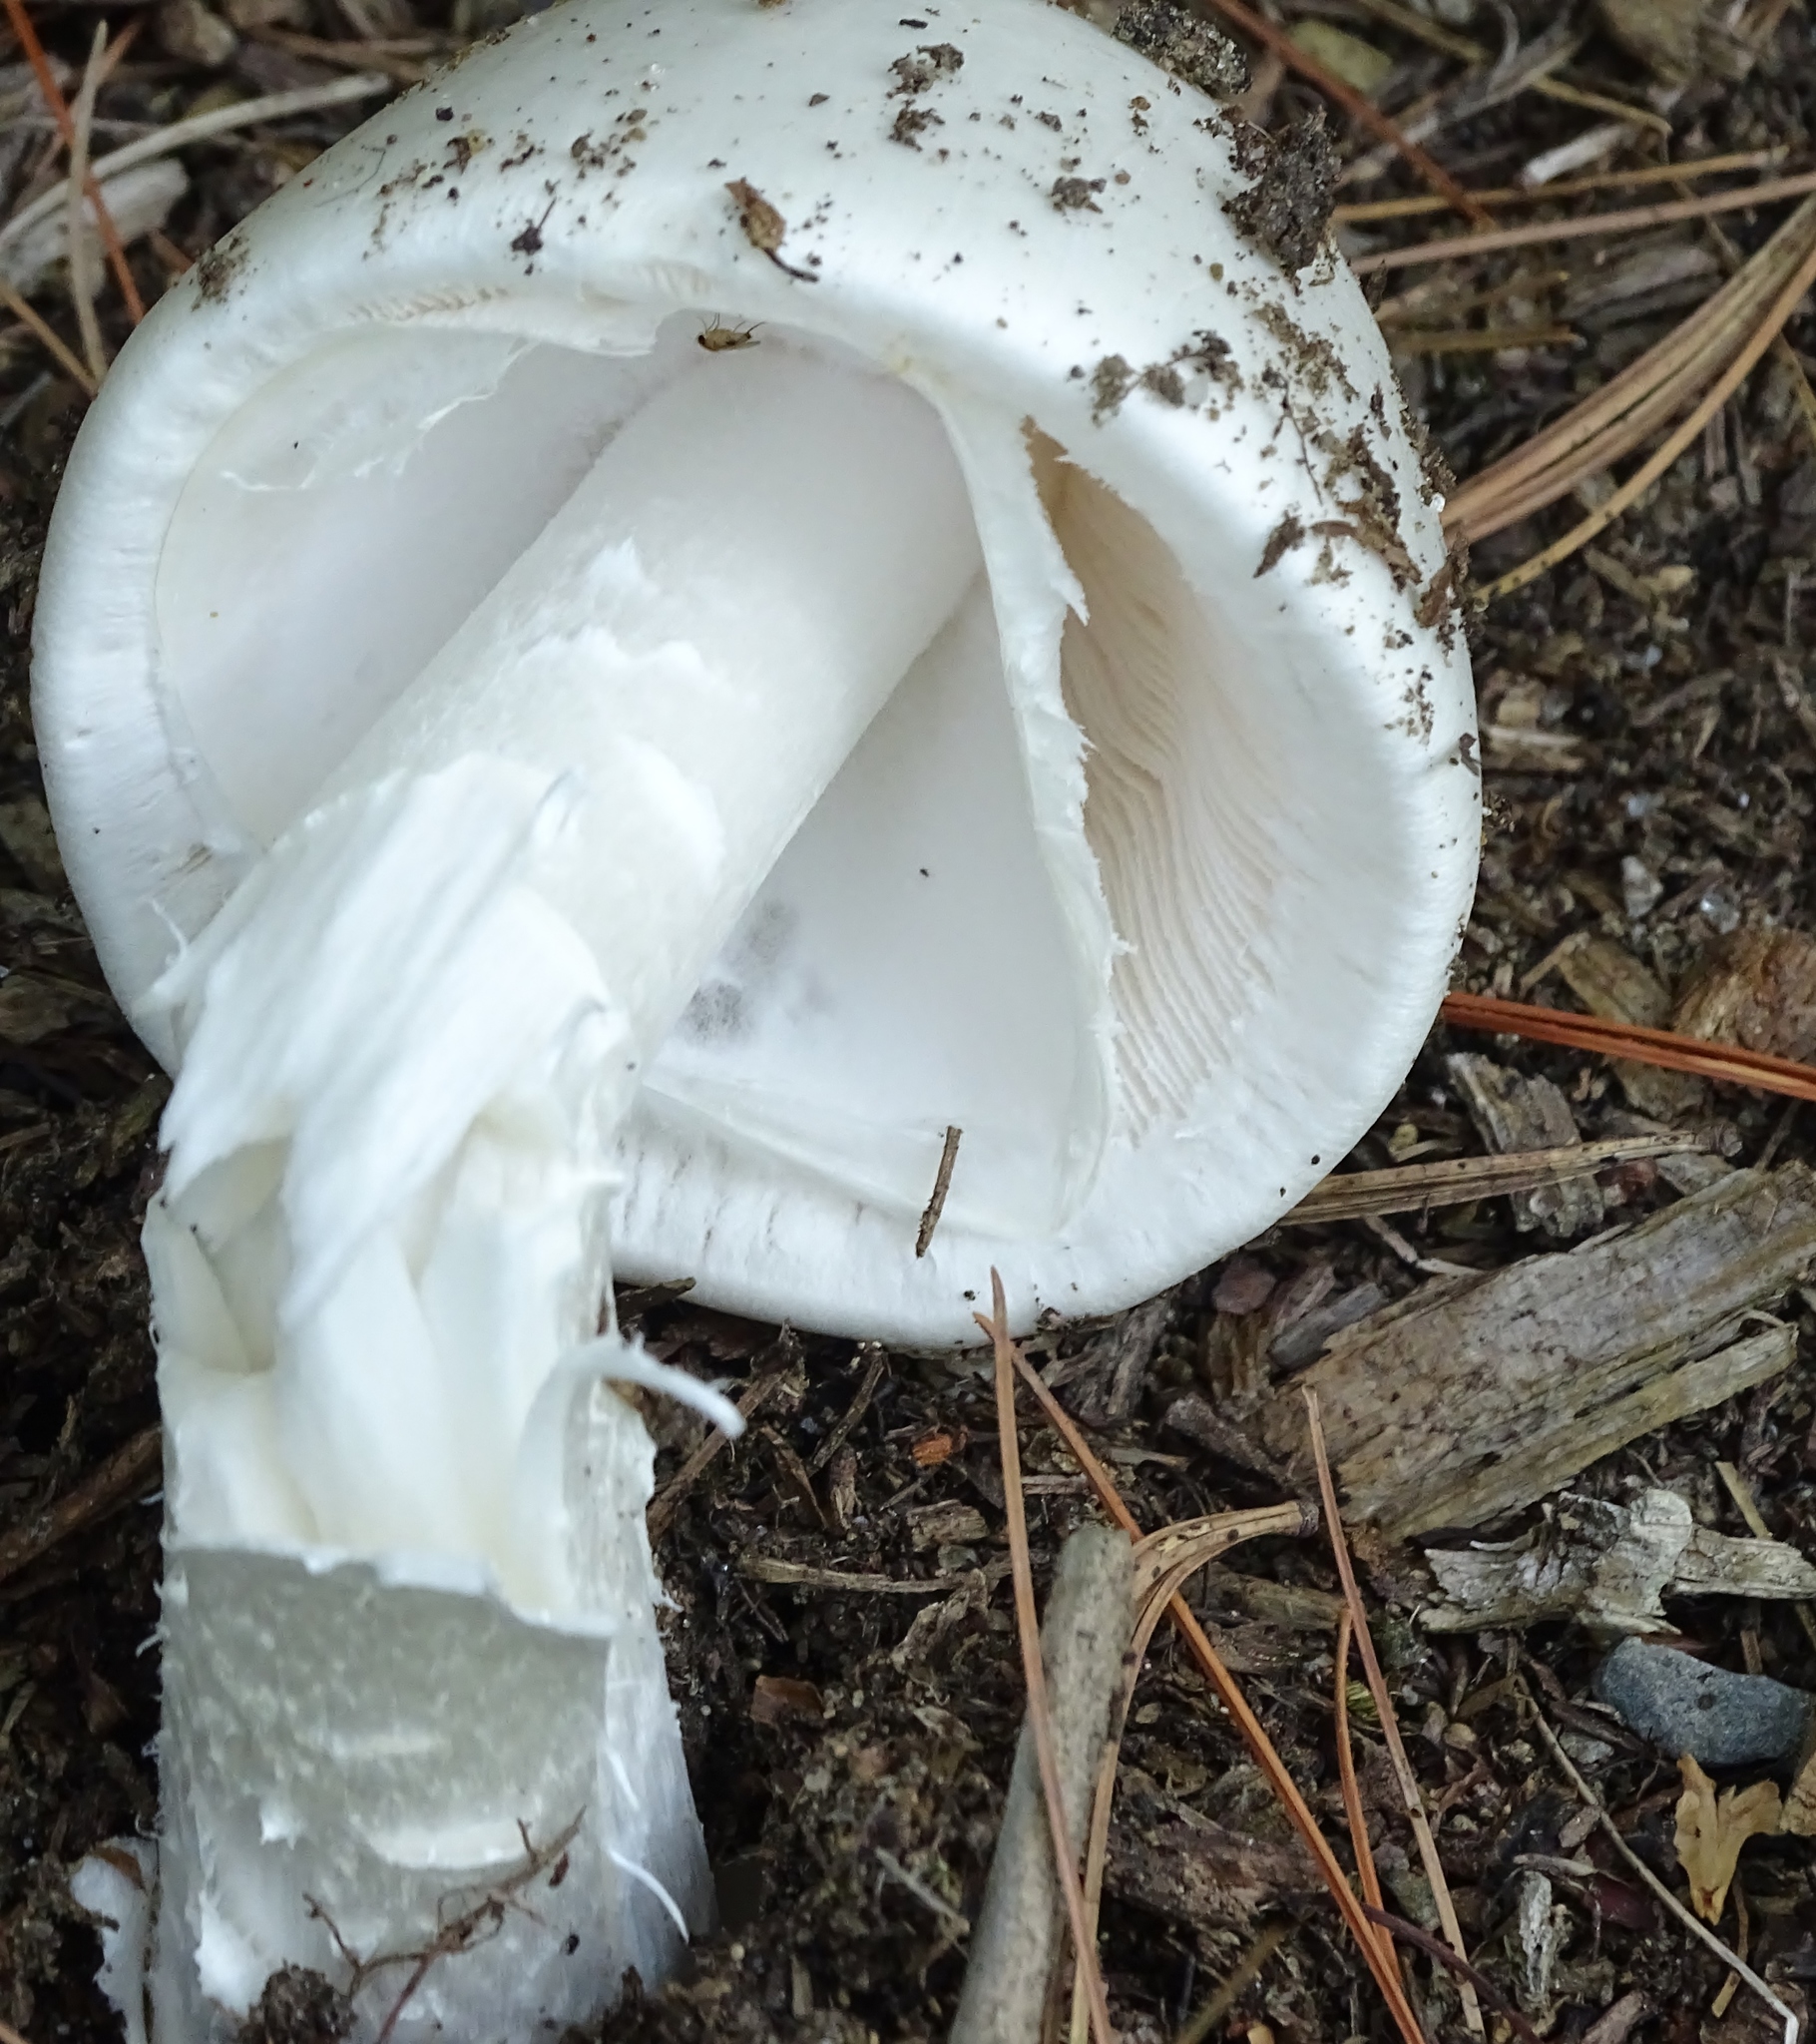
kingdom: Fungi
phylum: Basidiomycota
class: Agaricomycetes
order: Agaricales
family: Amanitaceae
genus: Amanita
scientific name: Amanita bisporigera
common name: Eastern north american destroying angel
